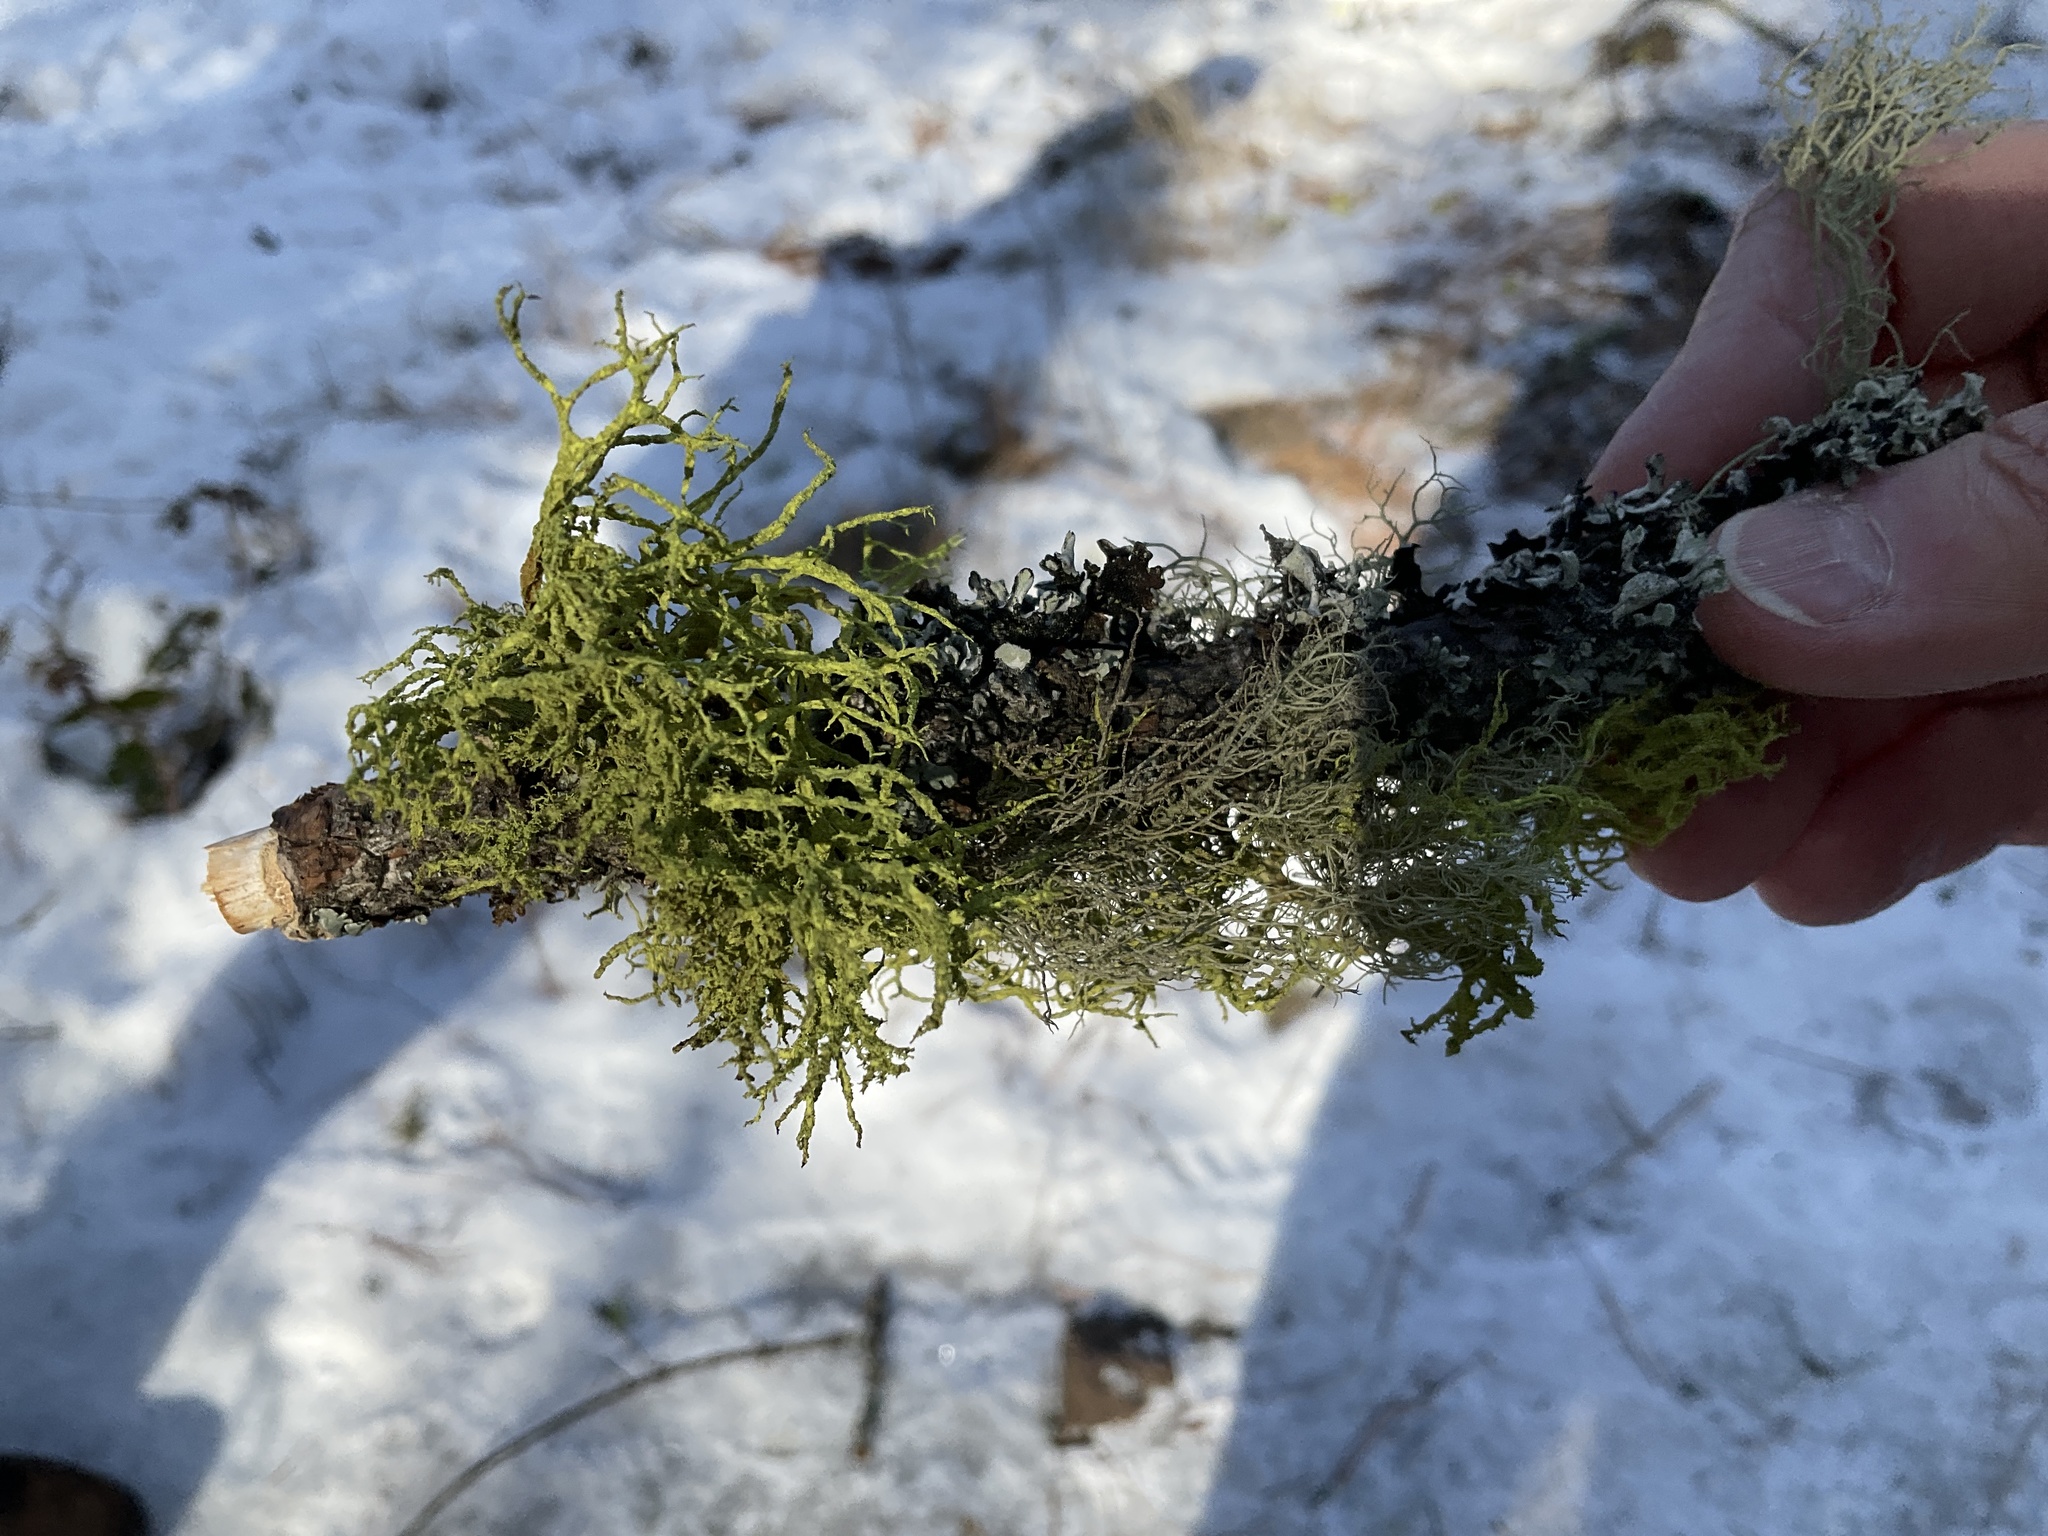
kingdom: Fungi
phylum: Ascomycota
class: Lecanoromycetes
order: Lecanorales
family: Parmeliaceae
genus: Letharia
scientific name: Letharia vulpina
